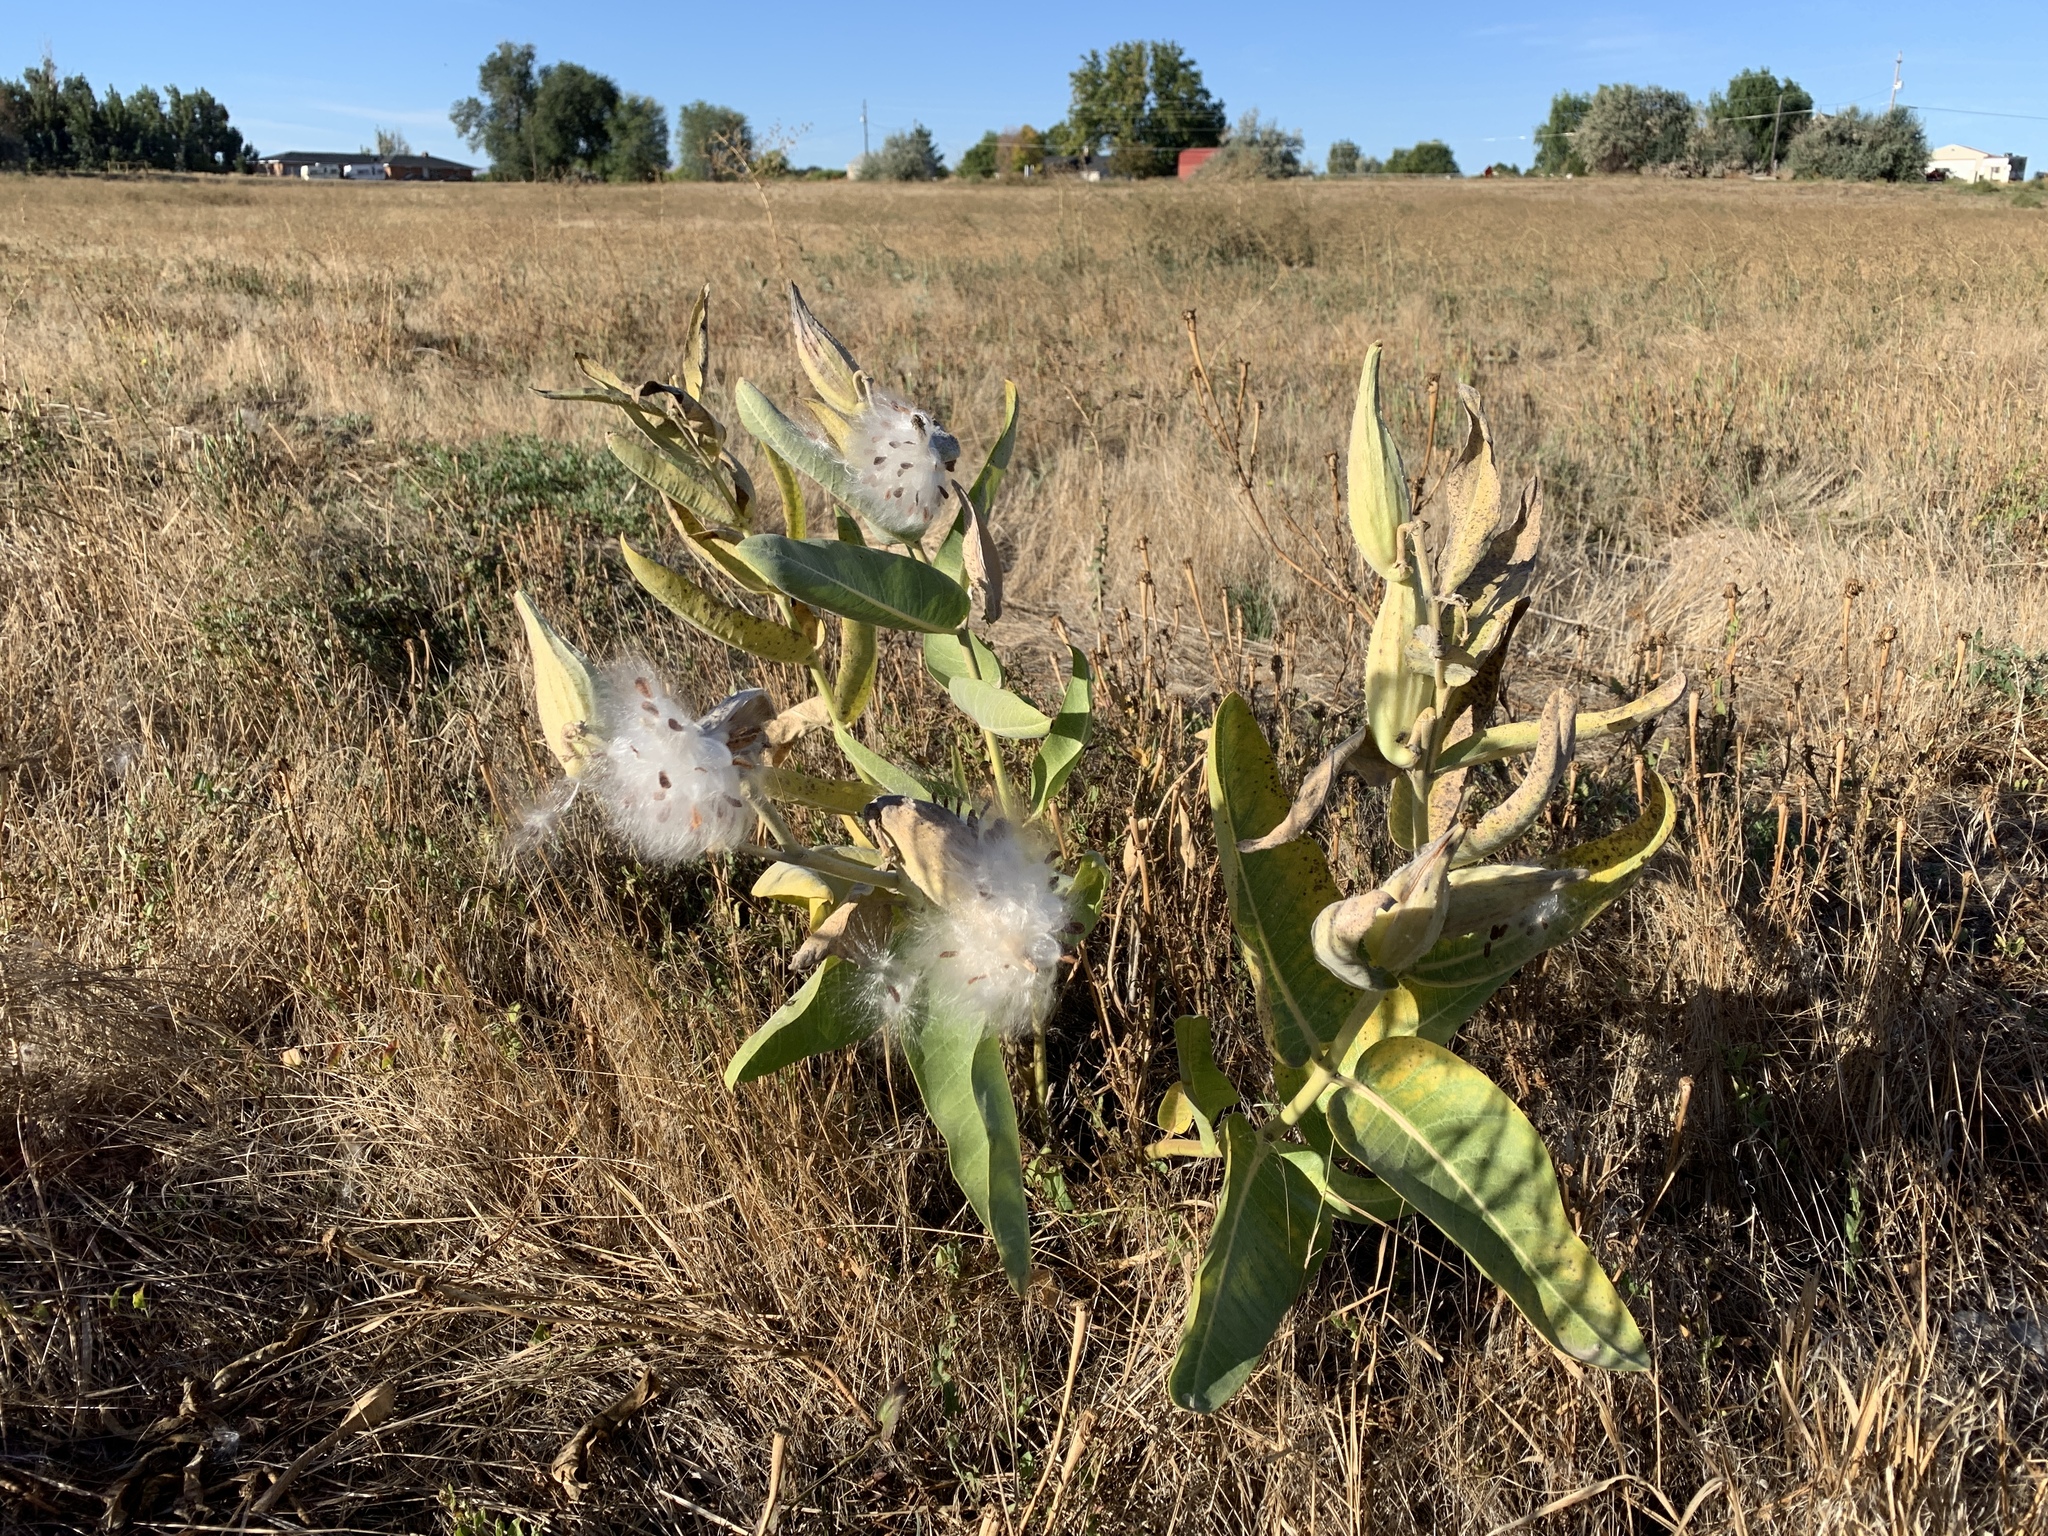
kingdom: Plantae
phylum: Tracheophyta
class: Magnoliopsida
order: Gentianales
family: Apocynaceae
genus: Asclepias
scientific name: Asclepias speciosa
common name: Showy milkweed
